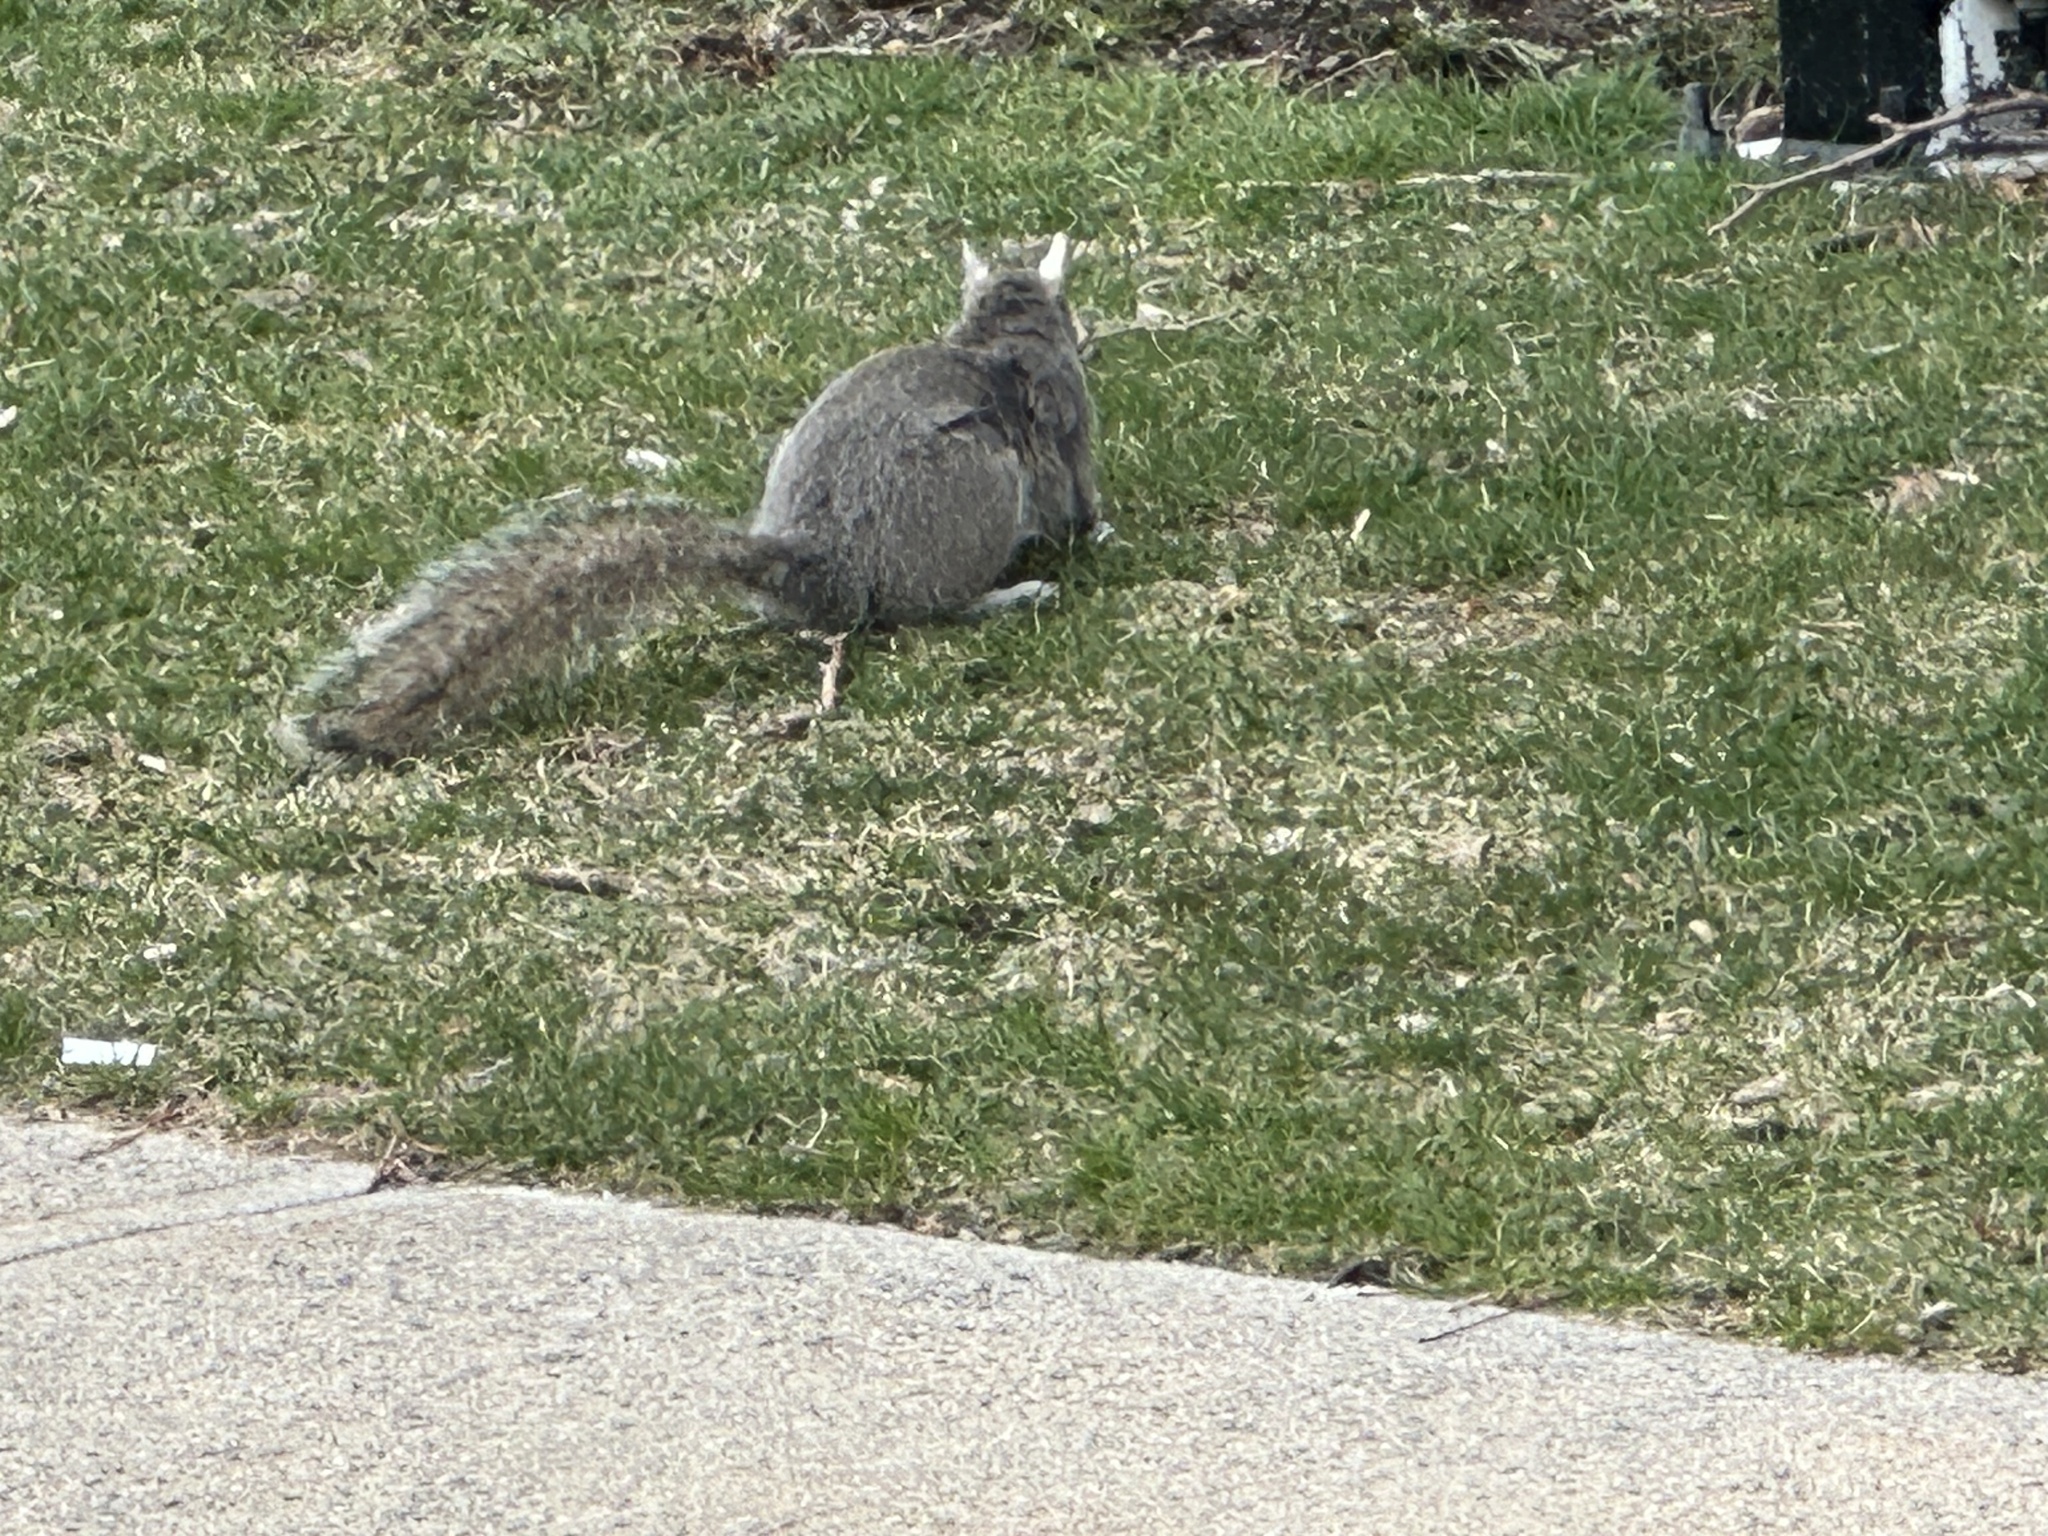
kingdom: Animalia
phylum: Chordata
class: Mammalia
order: Rodentia
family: Sciuridae
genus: Sciurus
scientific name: Sciurus carolinensis
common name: Eastern gray squirrel
